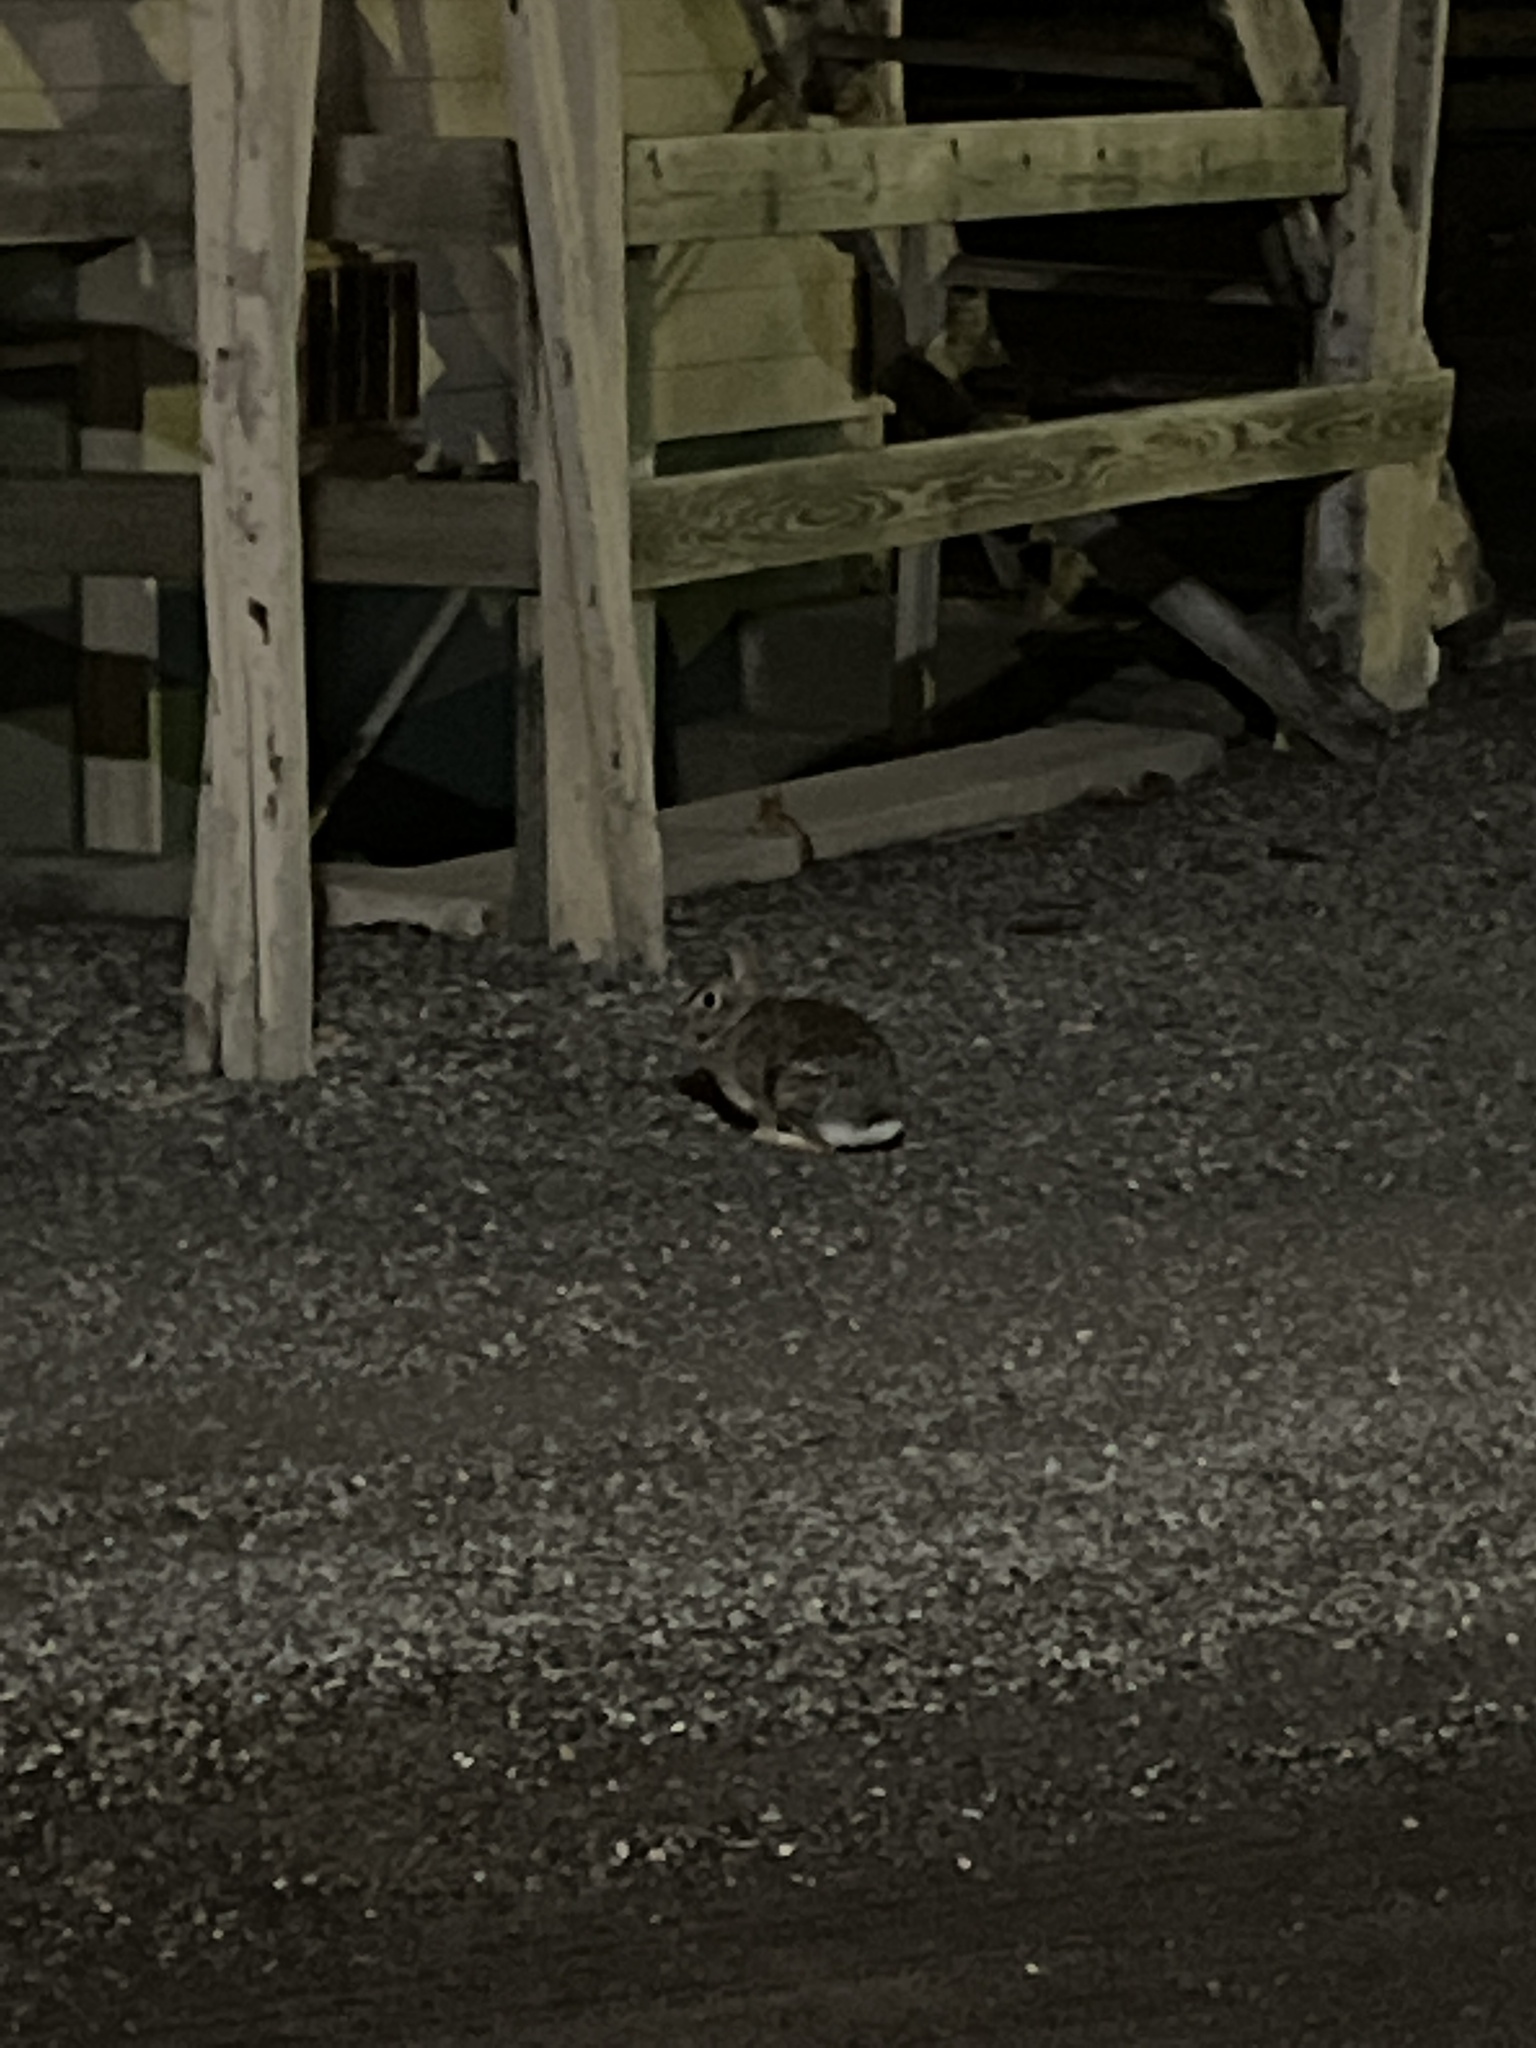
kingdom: Animalia
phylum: Chordata
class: Mammalia
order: Lagomorpha
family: Leporidae
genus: Sylvilagus
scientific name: Sylvilagus floridanus
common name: Eastern cottontail
